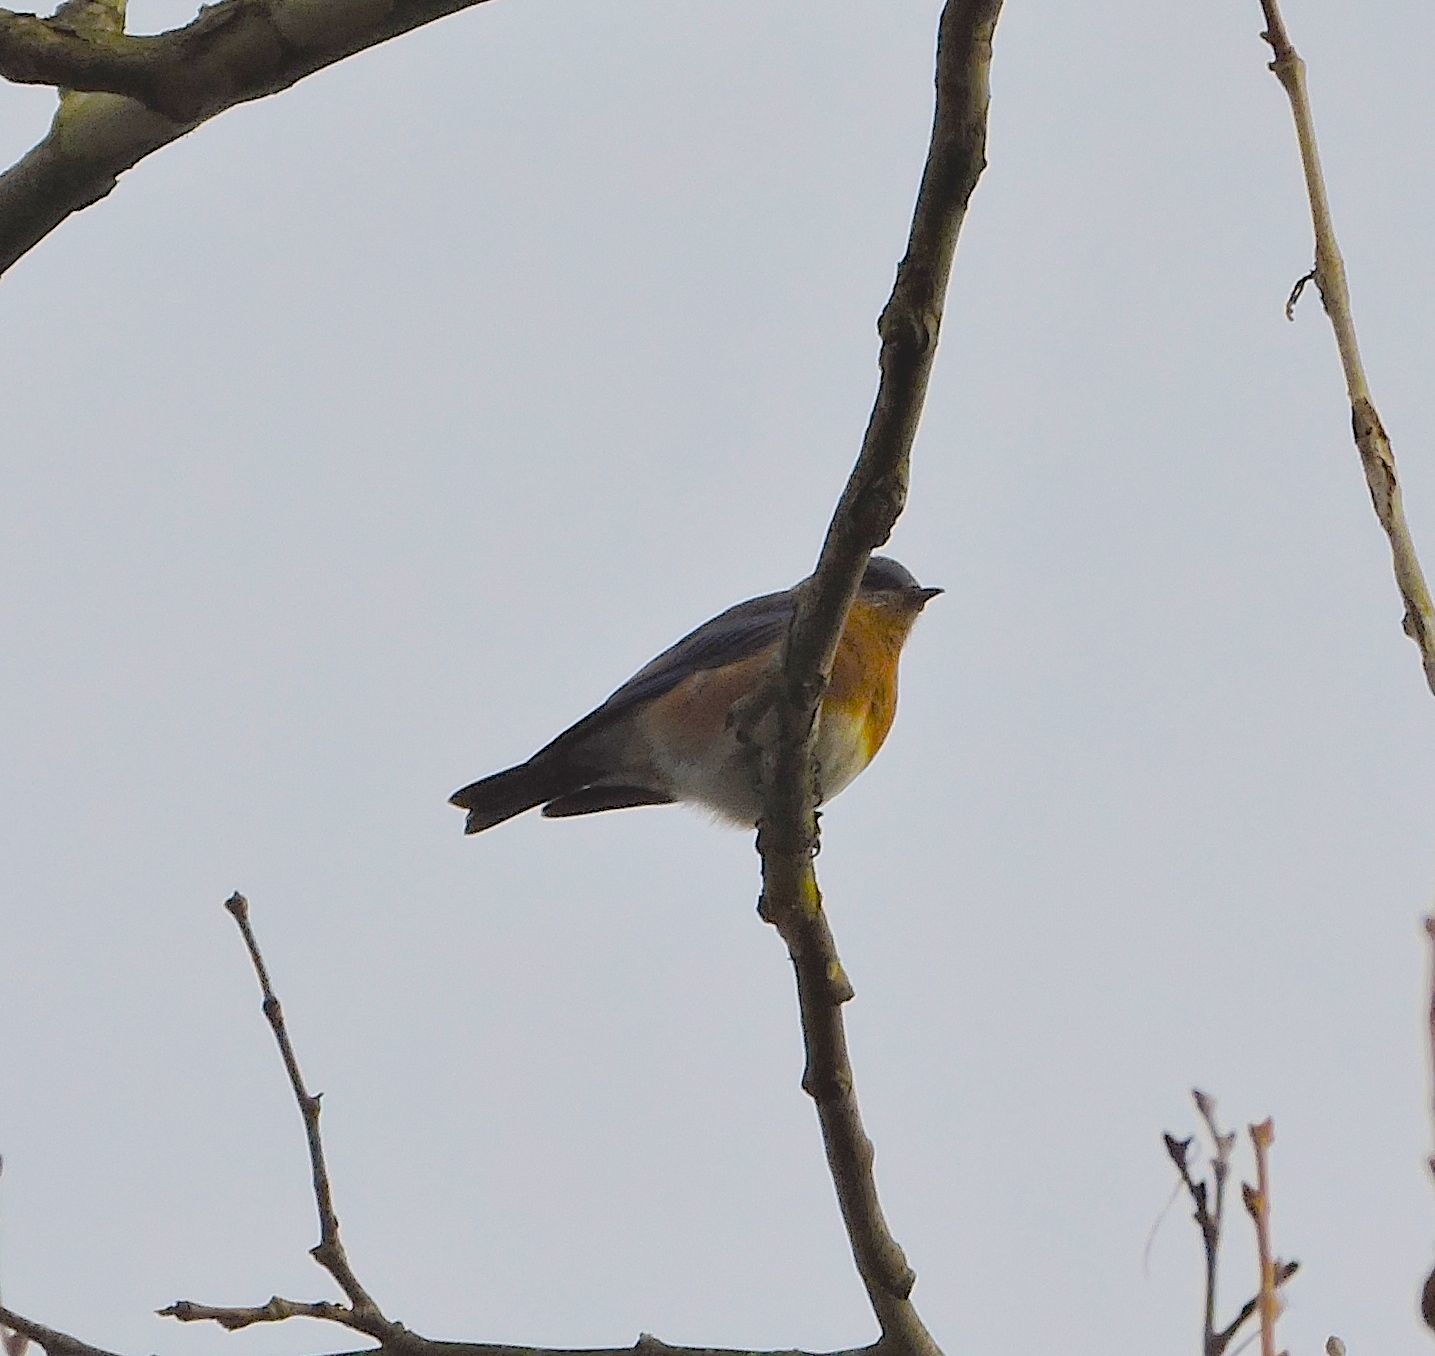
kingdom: Animalia
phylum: Chordata
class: Aves
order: Passeriformes
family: Turdidae
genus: Sialia
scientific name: Sialia sialis
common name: Eastern bluebird
